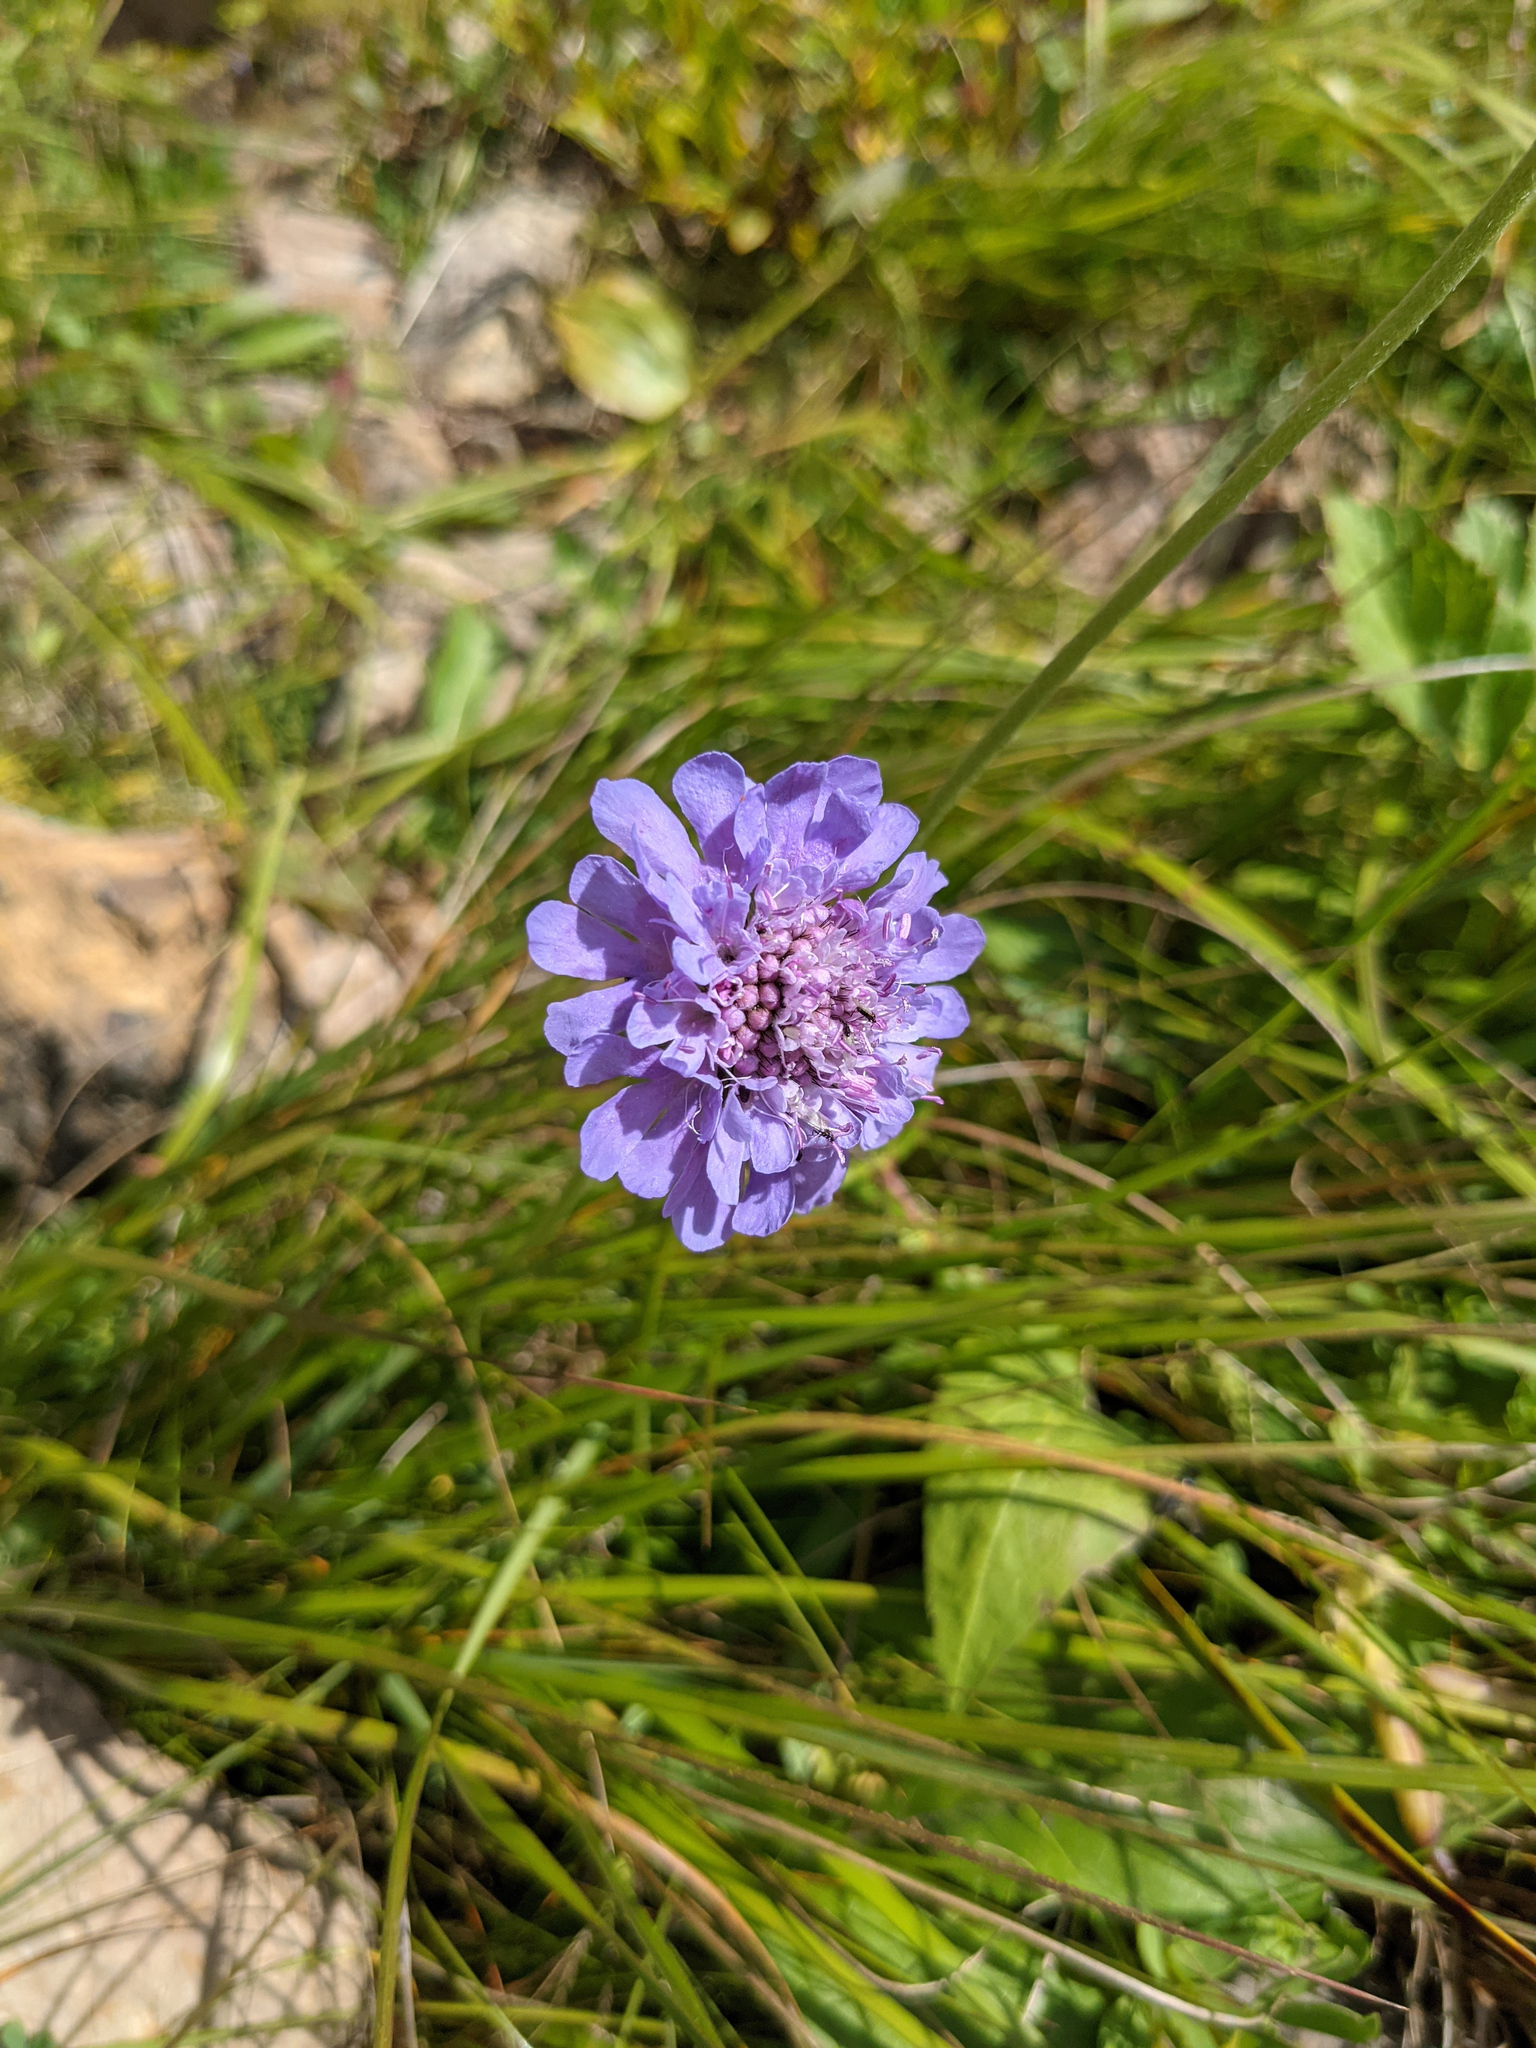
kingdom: Plantae
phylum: Tracheophyta
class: Magnoliopsida
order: Dipsacales
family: Caprifoliaceae
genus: Scabiosa
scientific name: Scabiosa lucida
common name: Shining scabious
